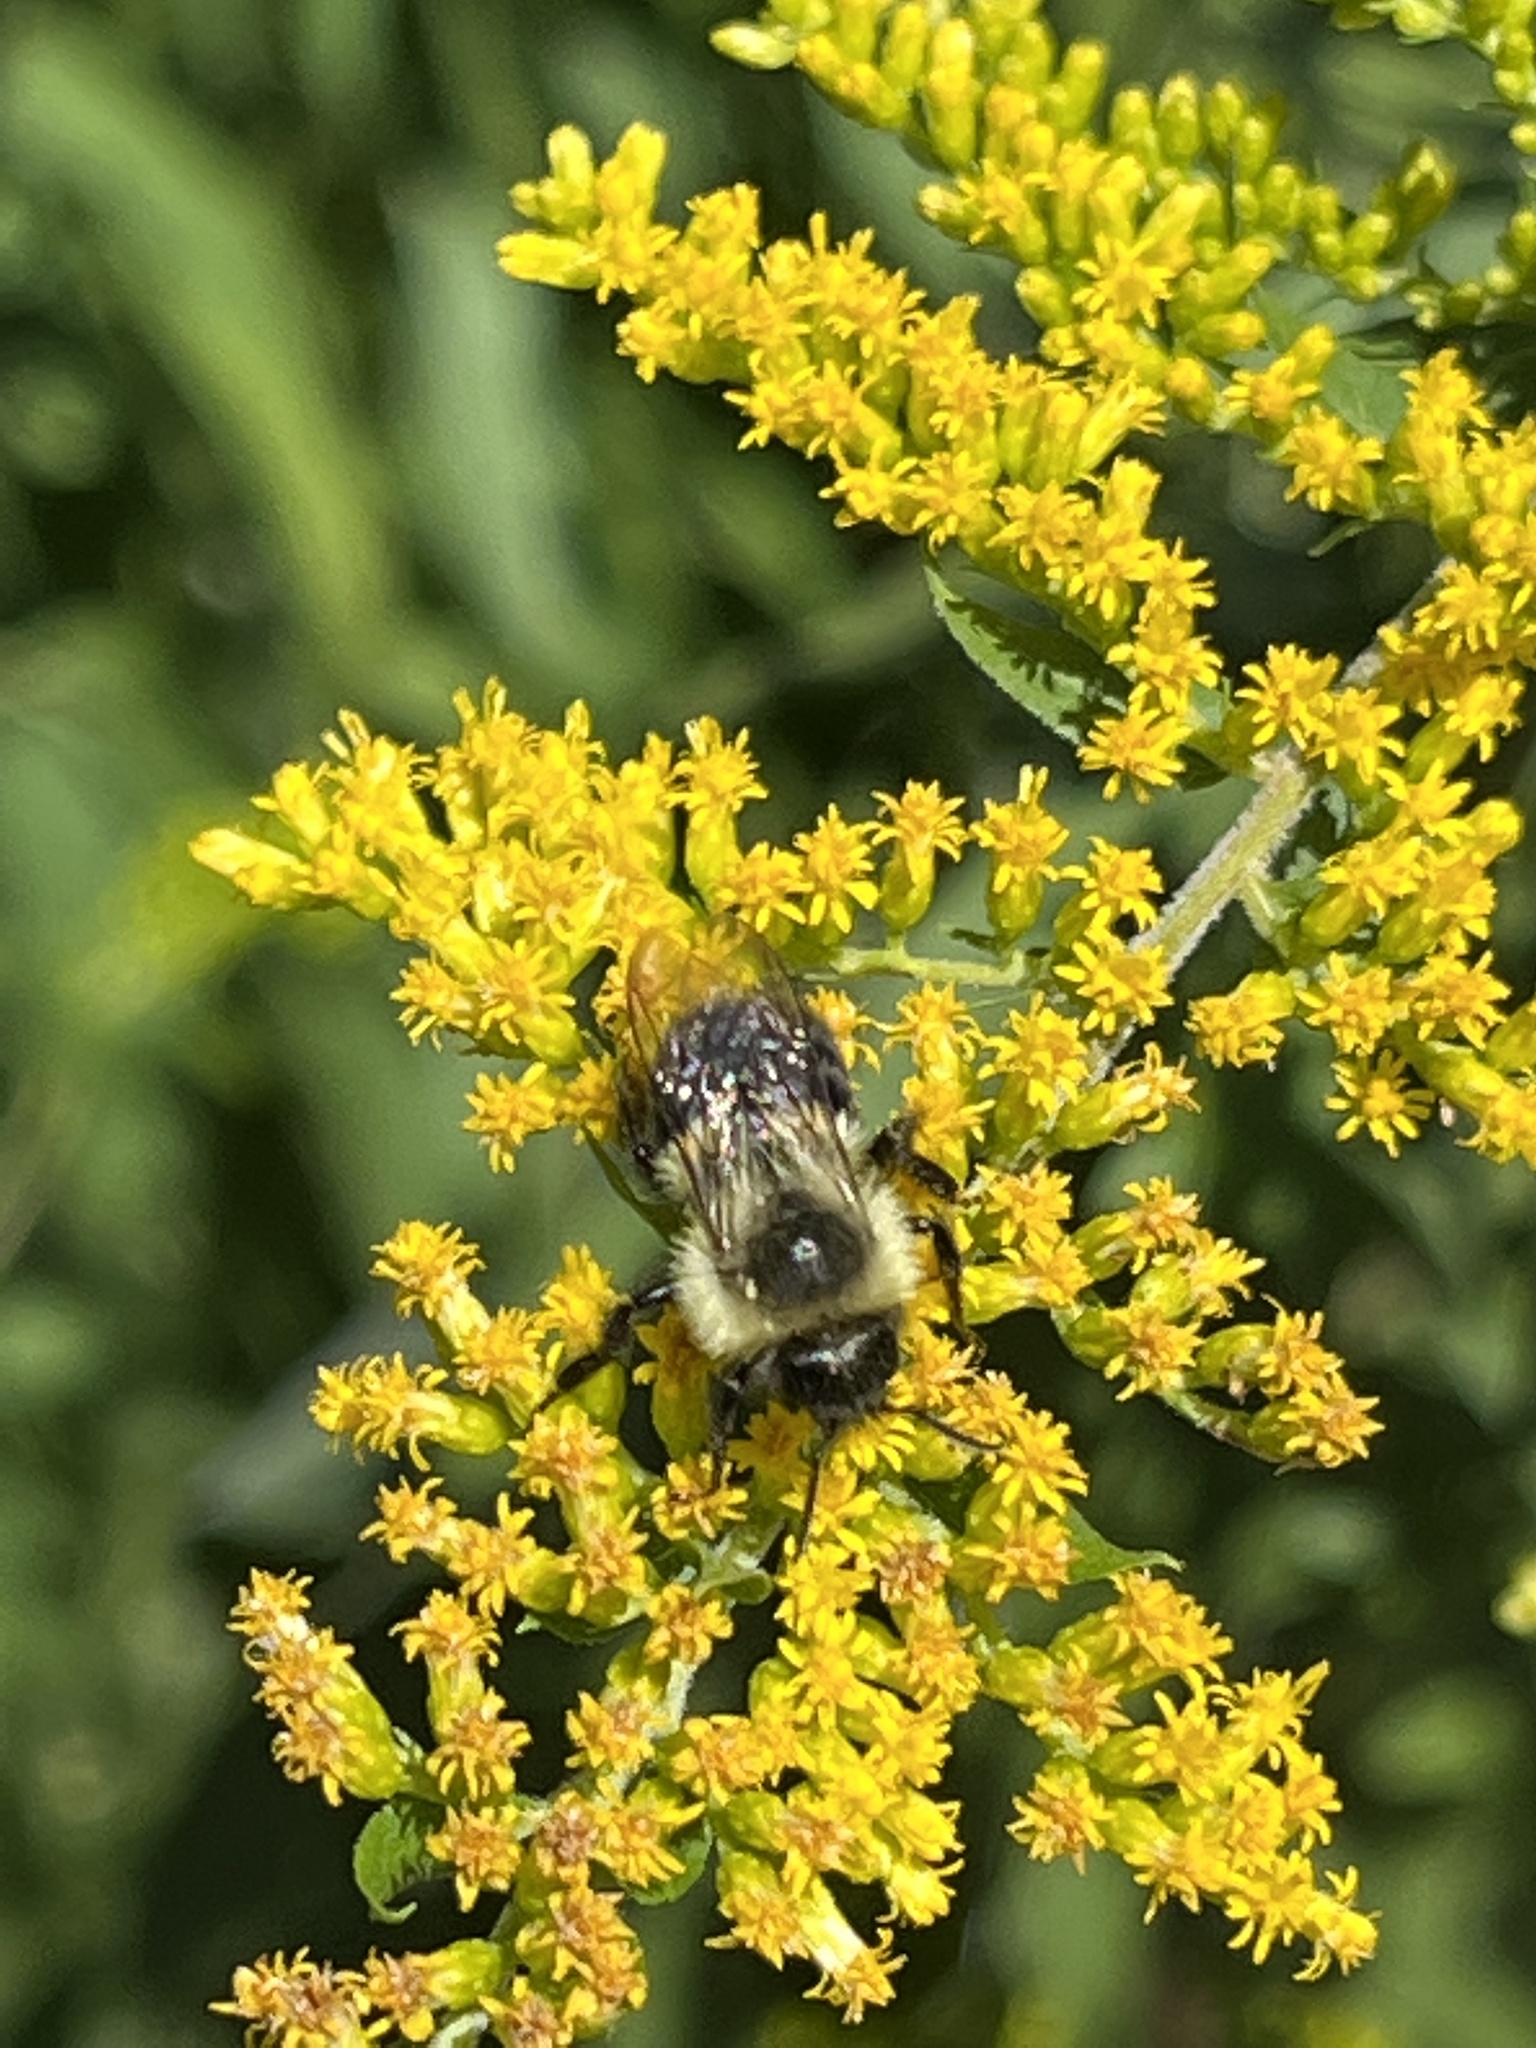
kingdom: Animalia
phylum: Arthropoda
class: Insecta
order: Hymenoptera
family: Apidae
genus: Bombus
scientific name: Bombus impatiens
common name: Common eastern bumble bee
